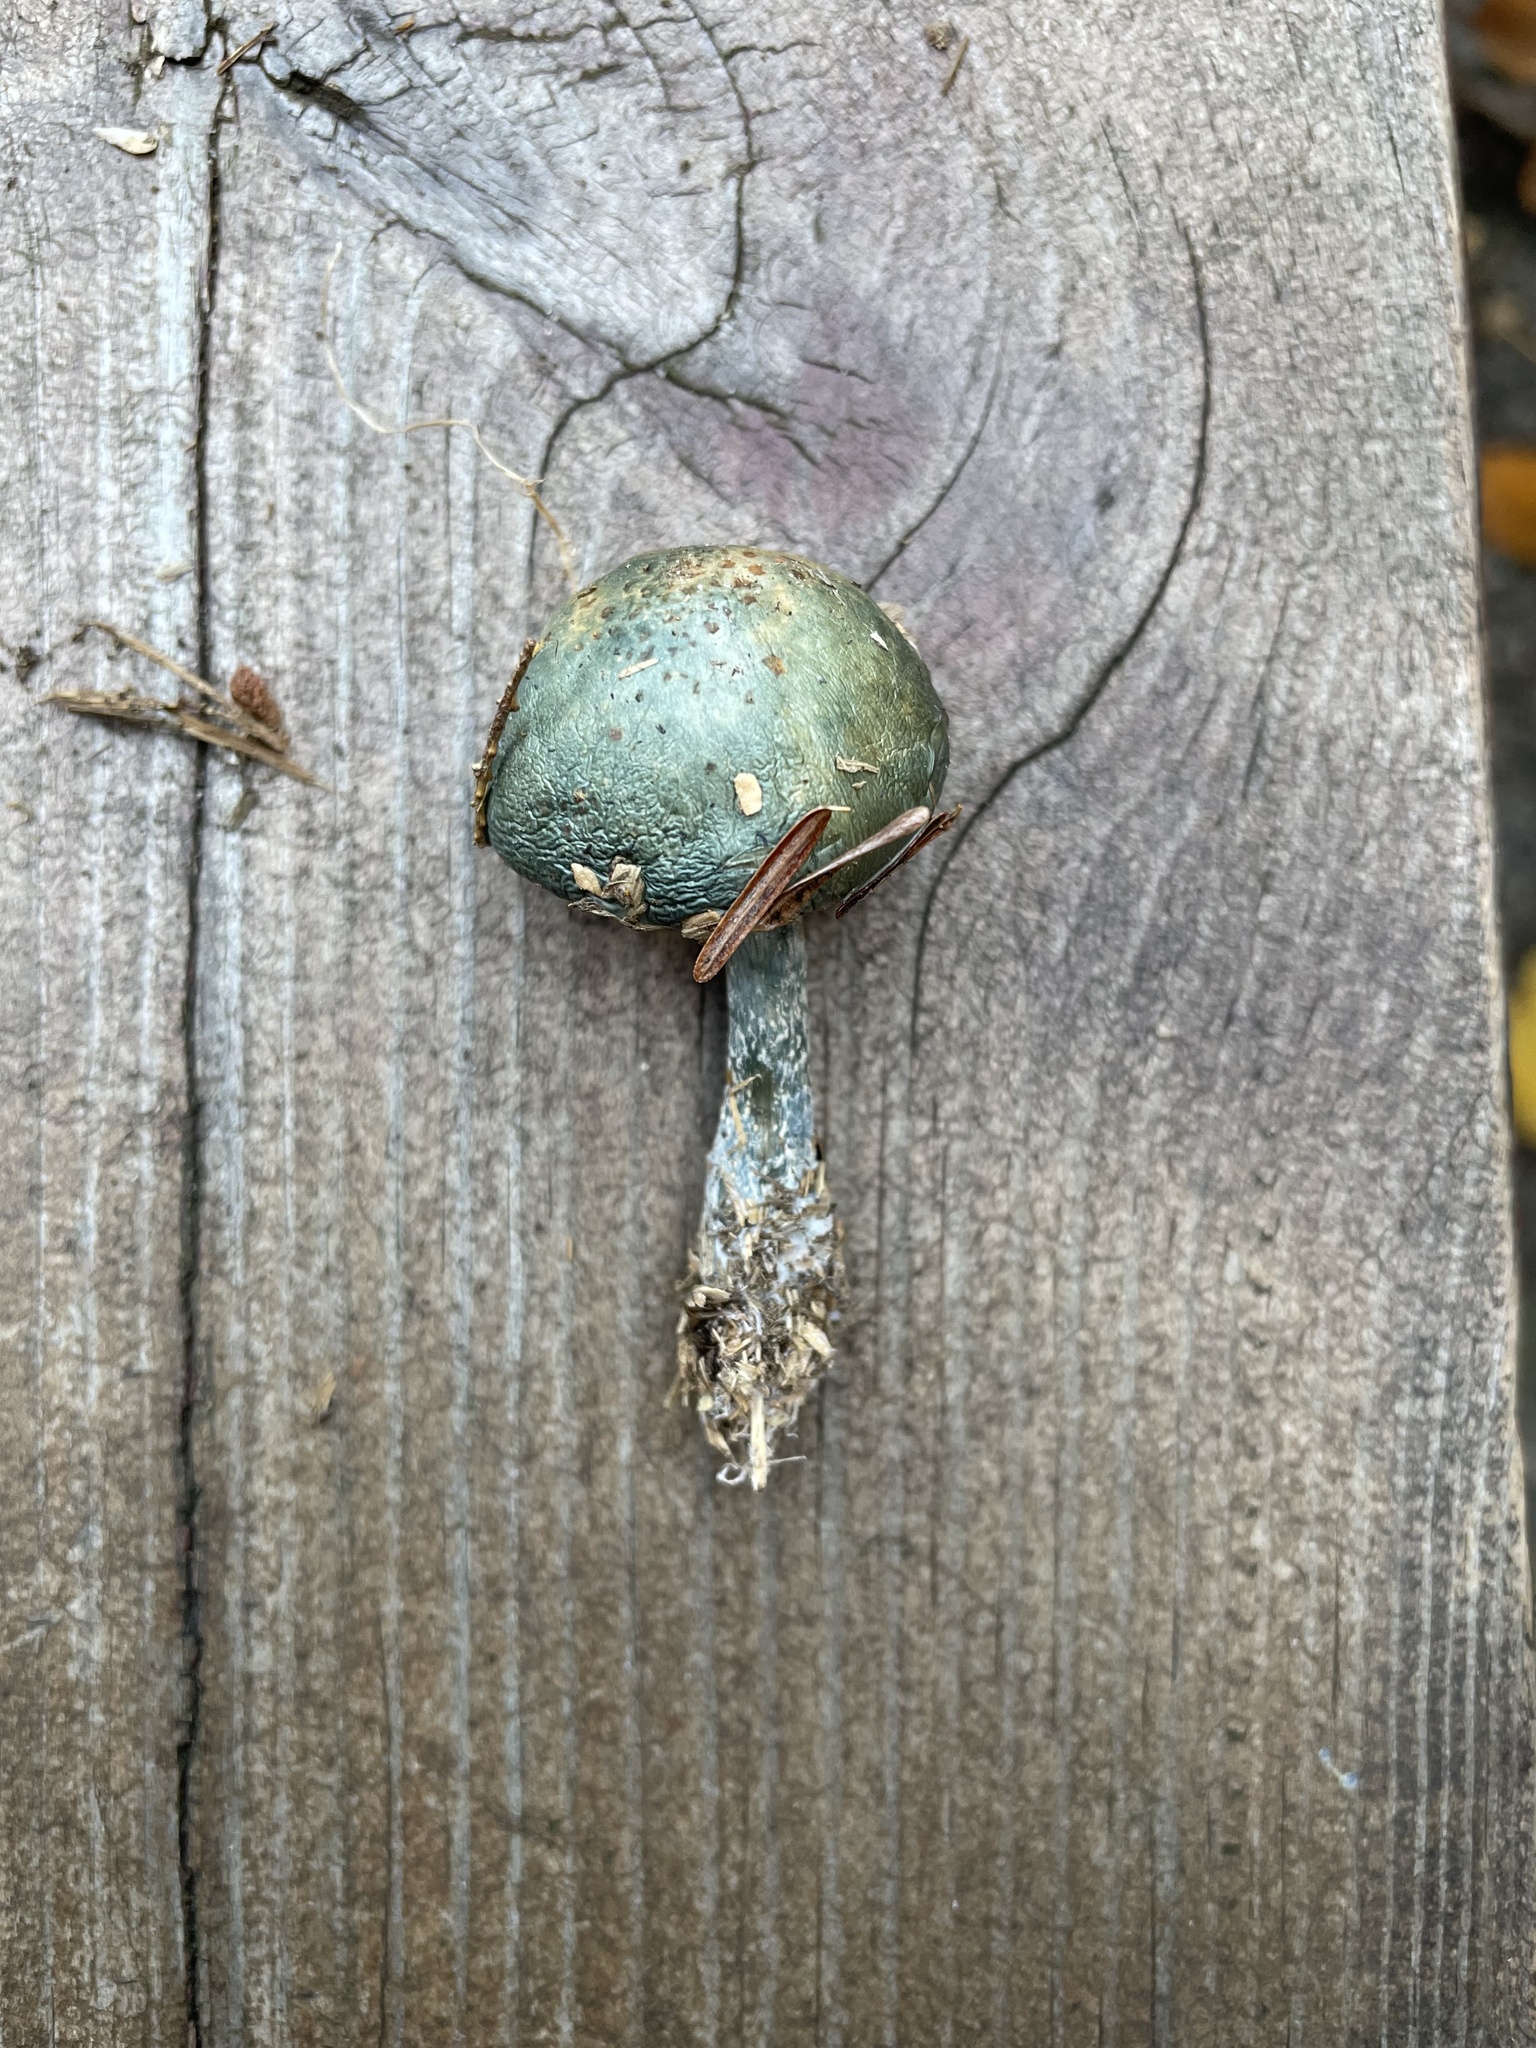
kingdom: Fungi
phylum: Basidiomycota
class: Agaricomycetes
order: Agaricales
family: Strophariaceae
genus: Stropharia
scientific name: Stropharia caerulea
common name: Blue roundhead
